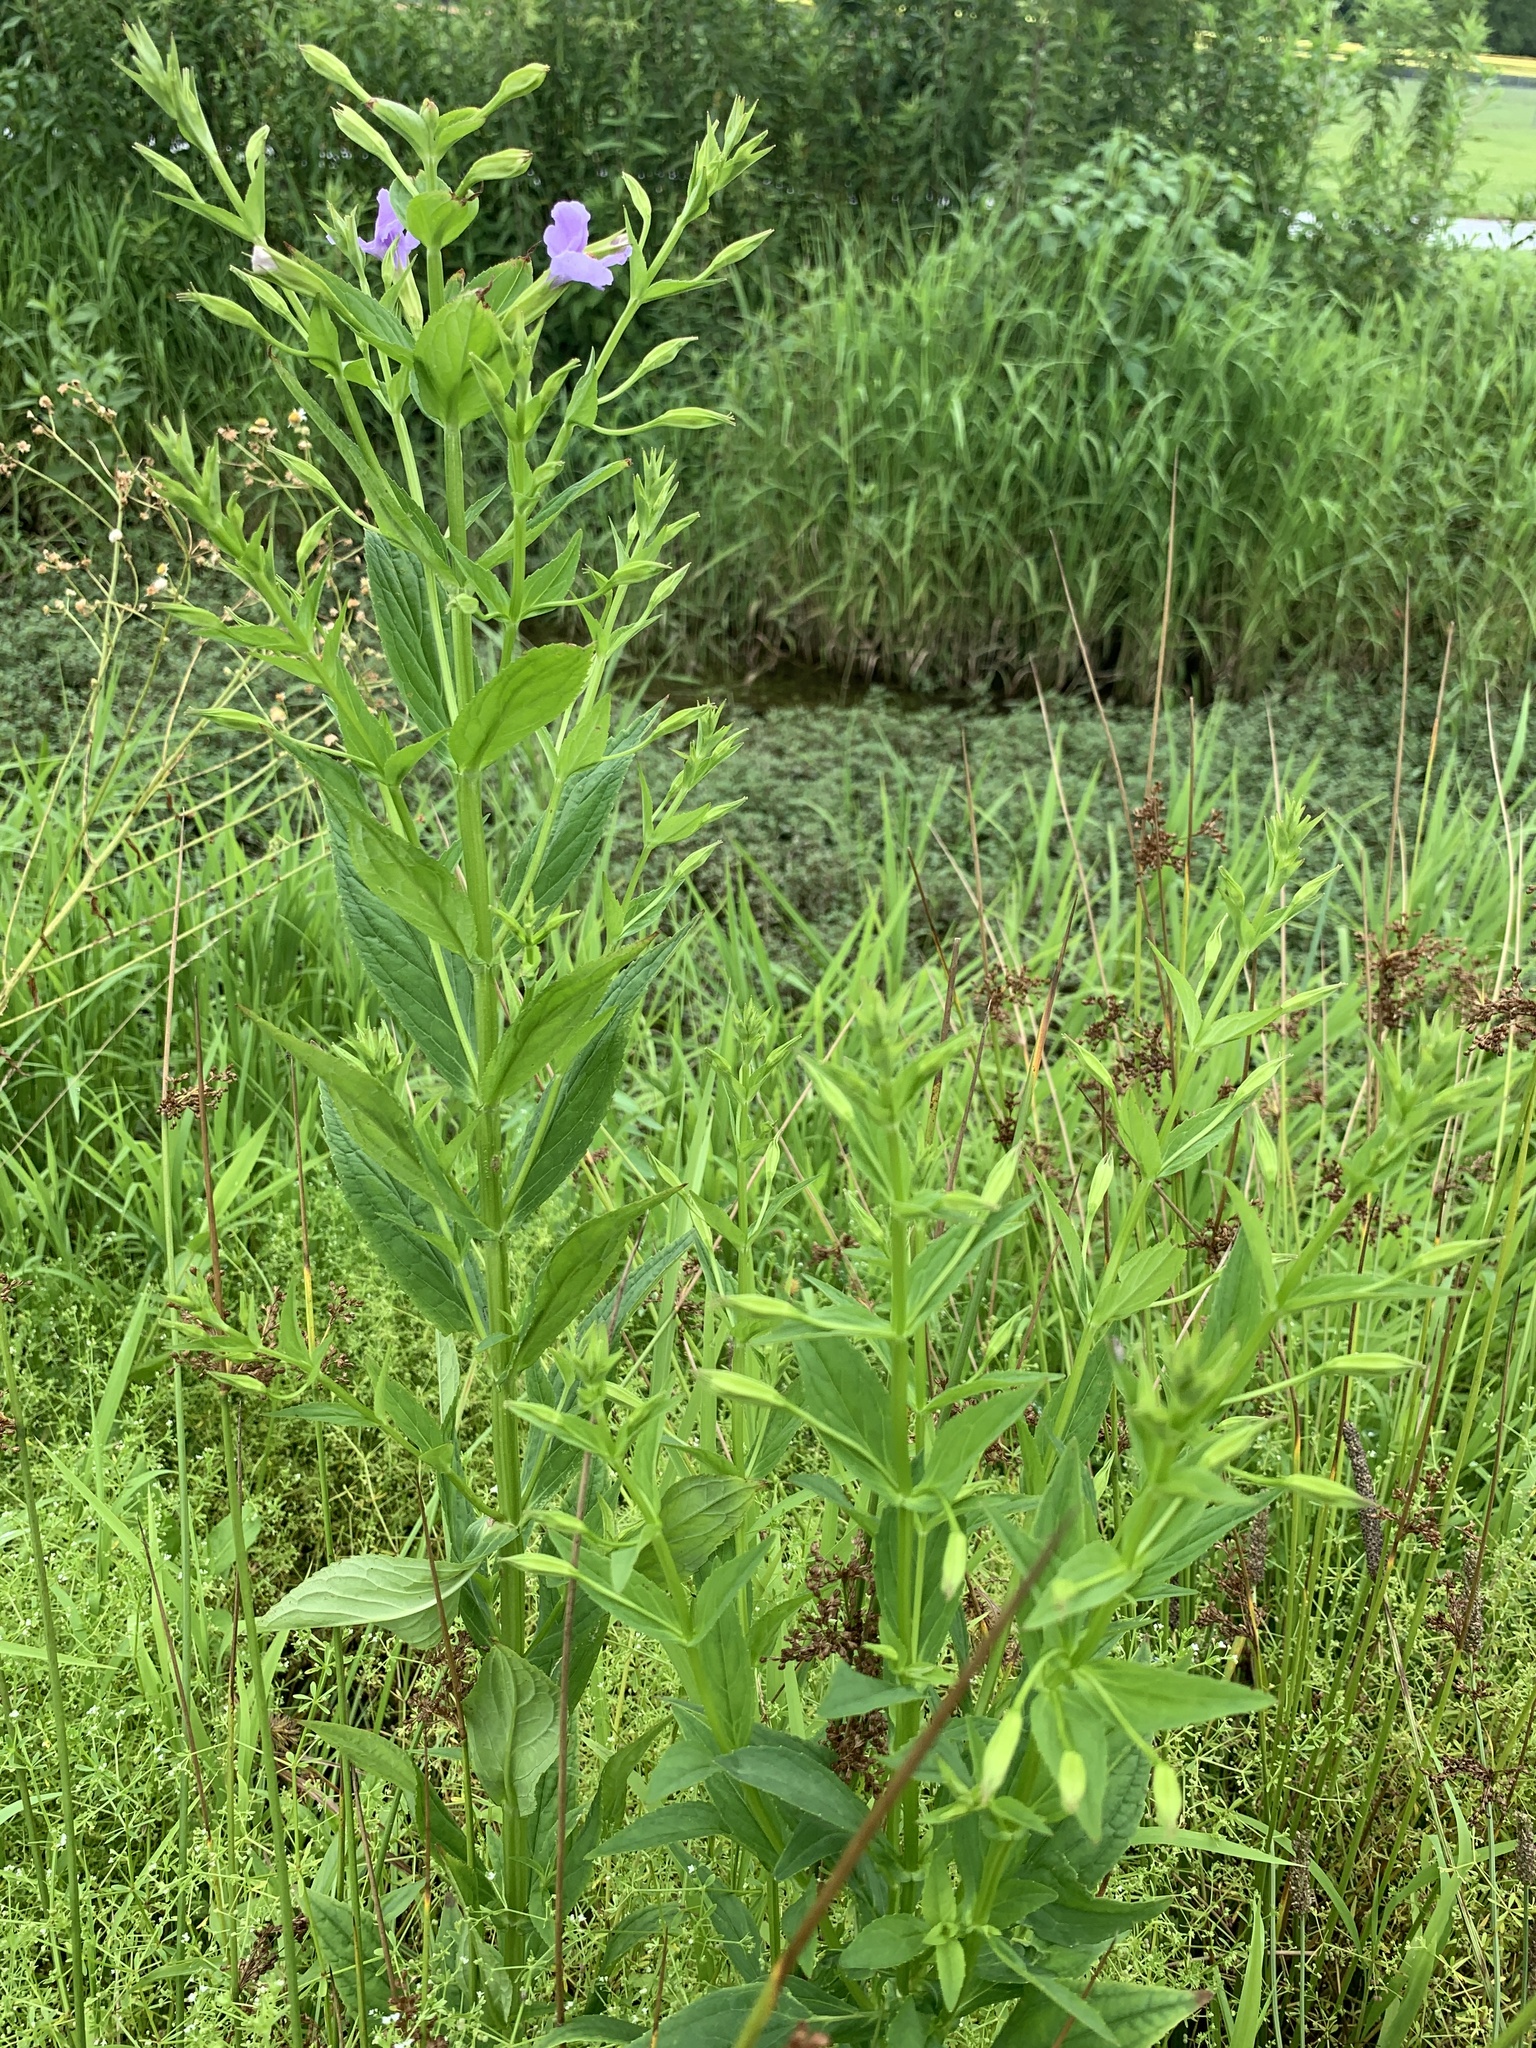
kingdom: Plantae
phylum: Tracheophyta
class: Magnoliopsida
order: Lamiales
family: Phrymaceae
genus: Mimulus
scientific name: Mimulus ringens
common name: Allegheny monkeyflower
